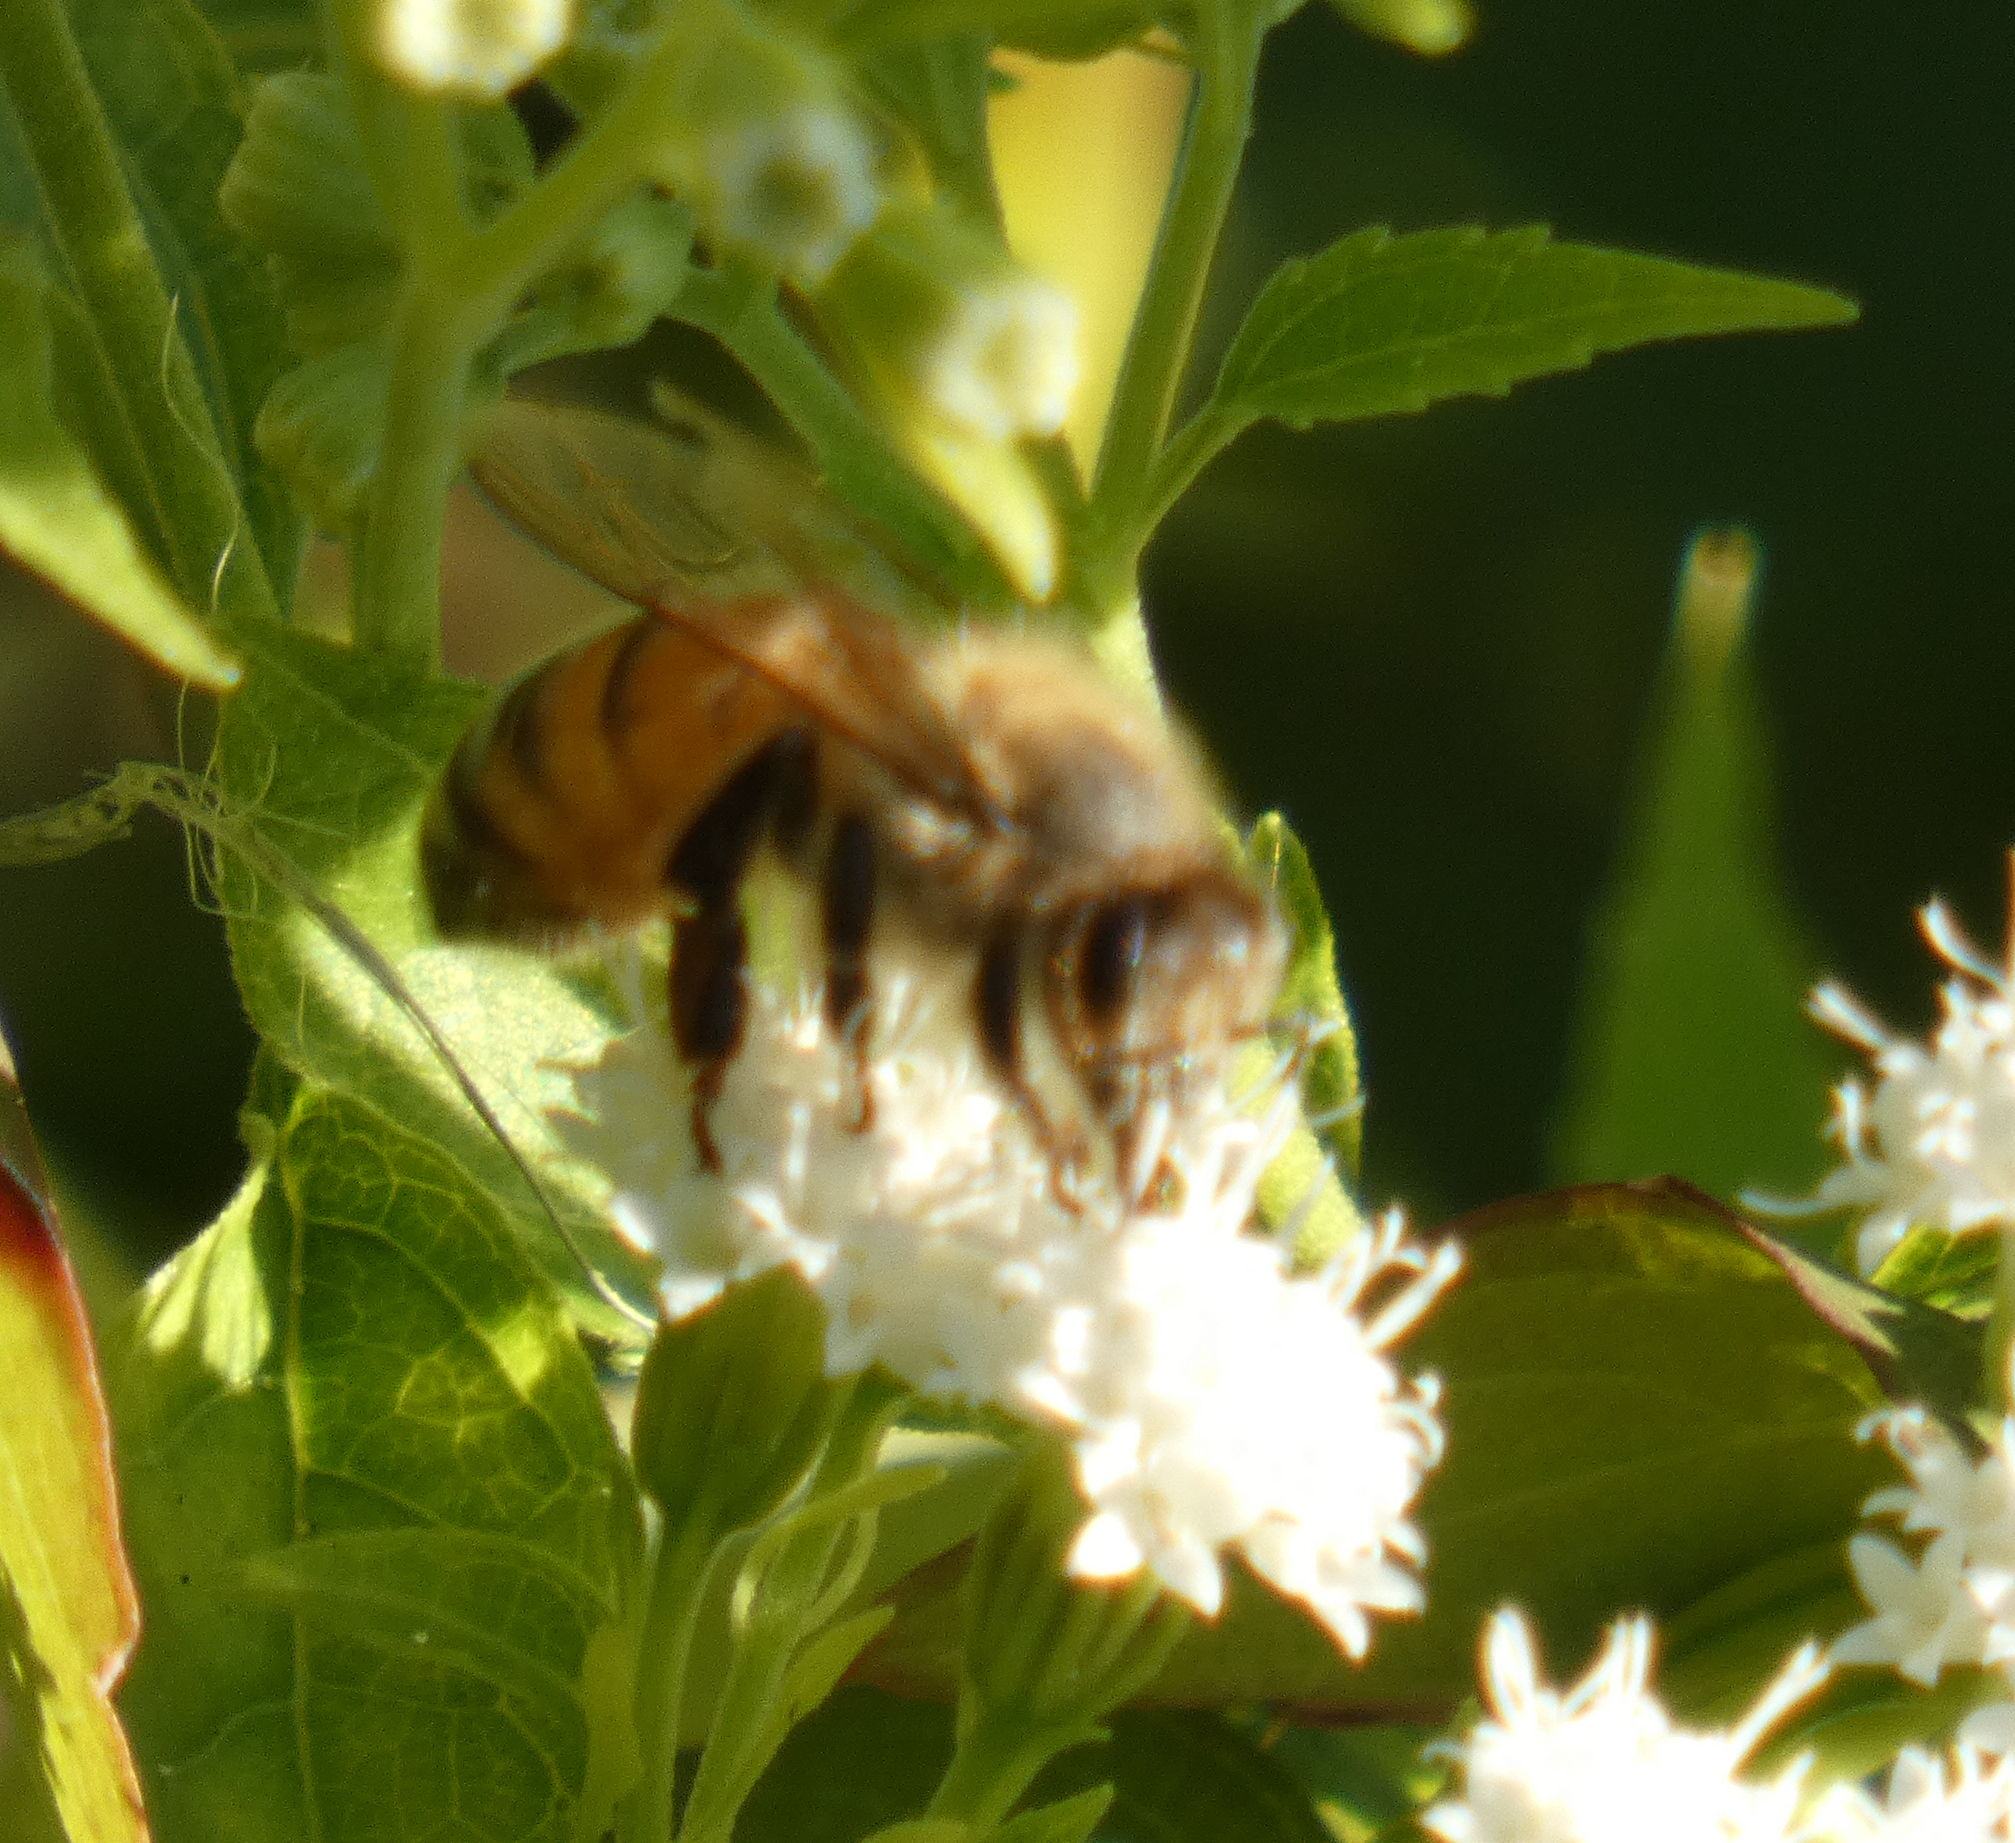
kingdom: Animalia
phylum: Arthropoda
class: Insecta
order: Hymenoptera
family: Apidae
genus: Apis
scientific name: Apis mellifera
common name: Honey bee
